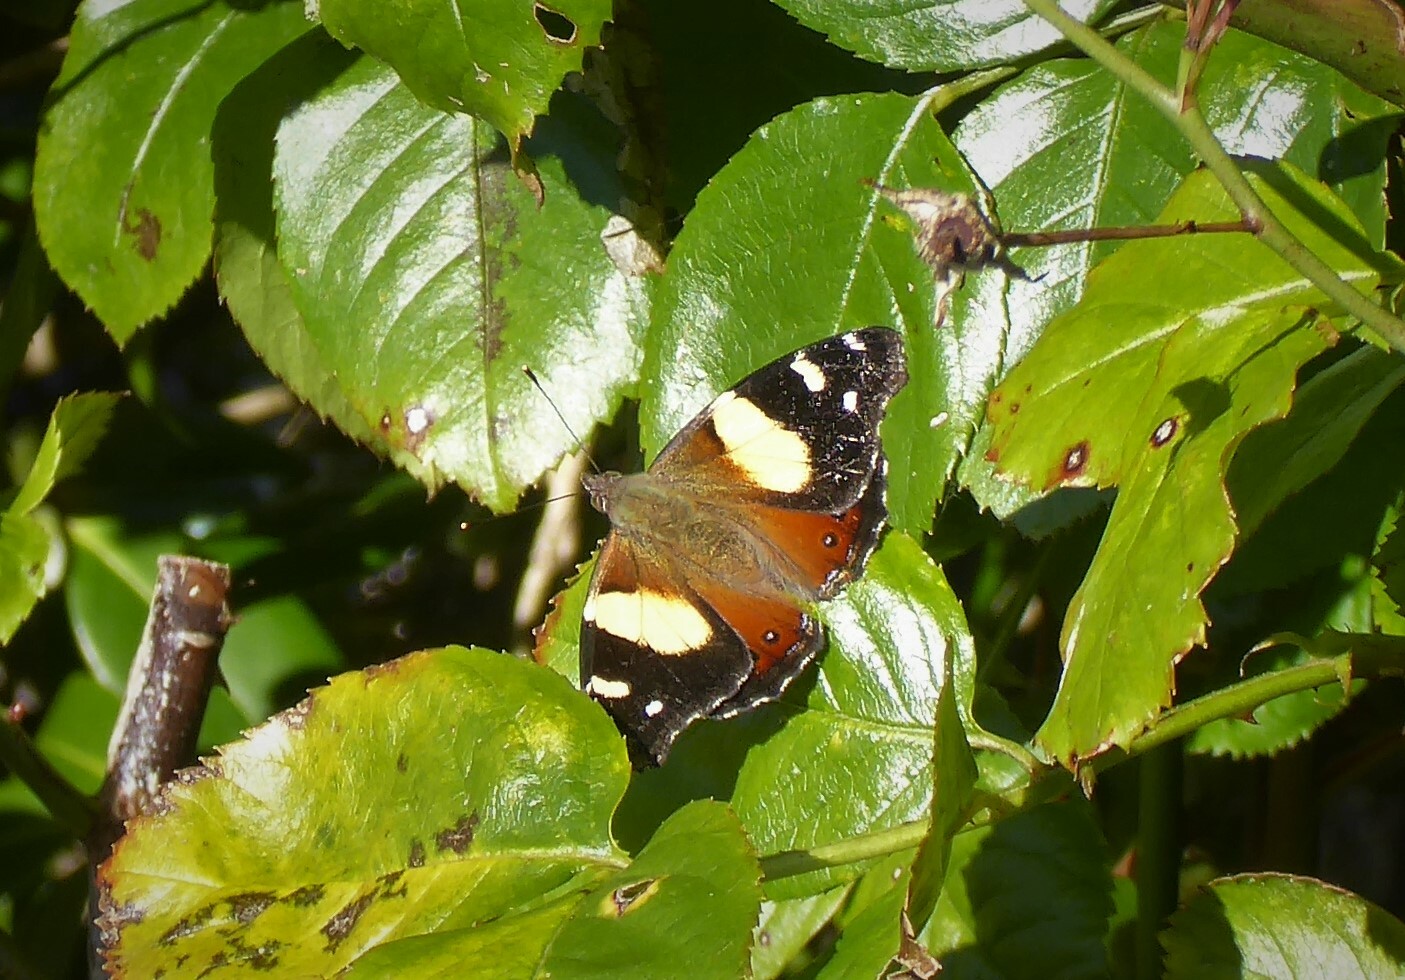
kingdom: Animalia
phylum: Arthropoda
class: Insecta
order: Lepidoptera
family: Nymphalidae
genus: Vanessa
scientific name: Vanessa itea
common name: Yellow admiral
